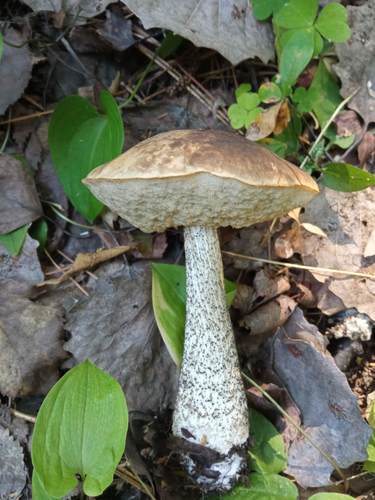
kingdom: Fungi
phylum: Basidiomycota
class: Agaricomycetes
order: Boletales
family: Boletaceae
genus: Leccinum
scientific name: Leccinum
